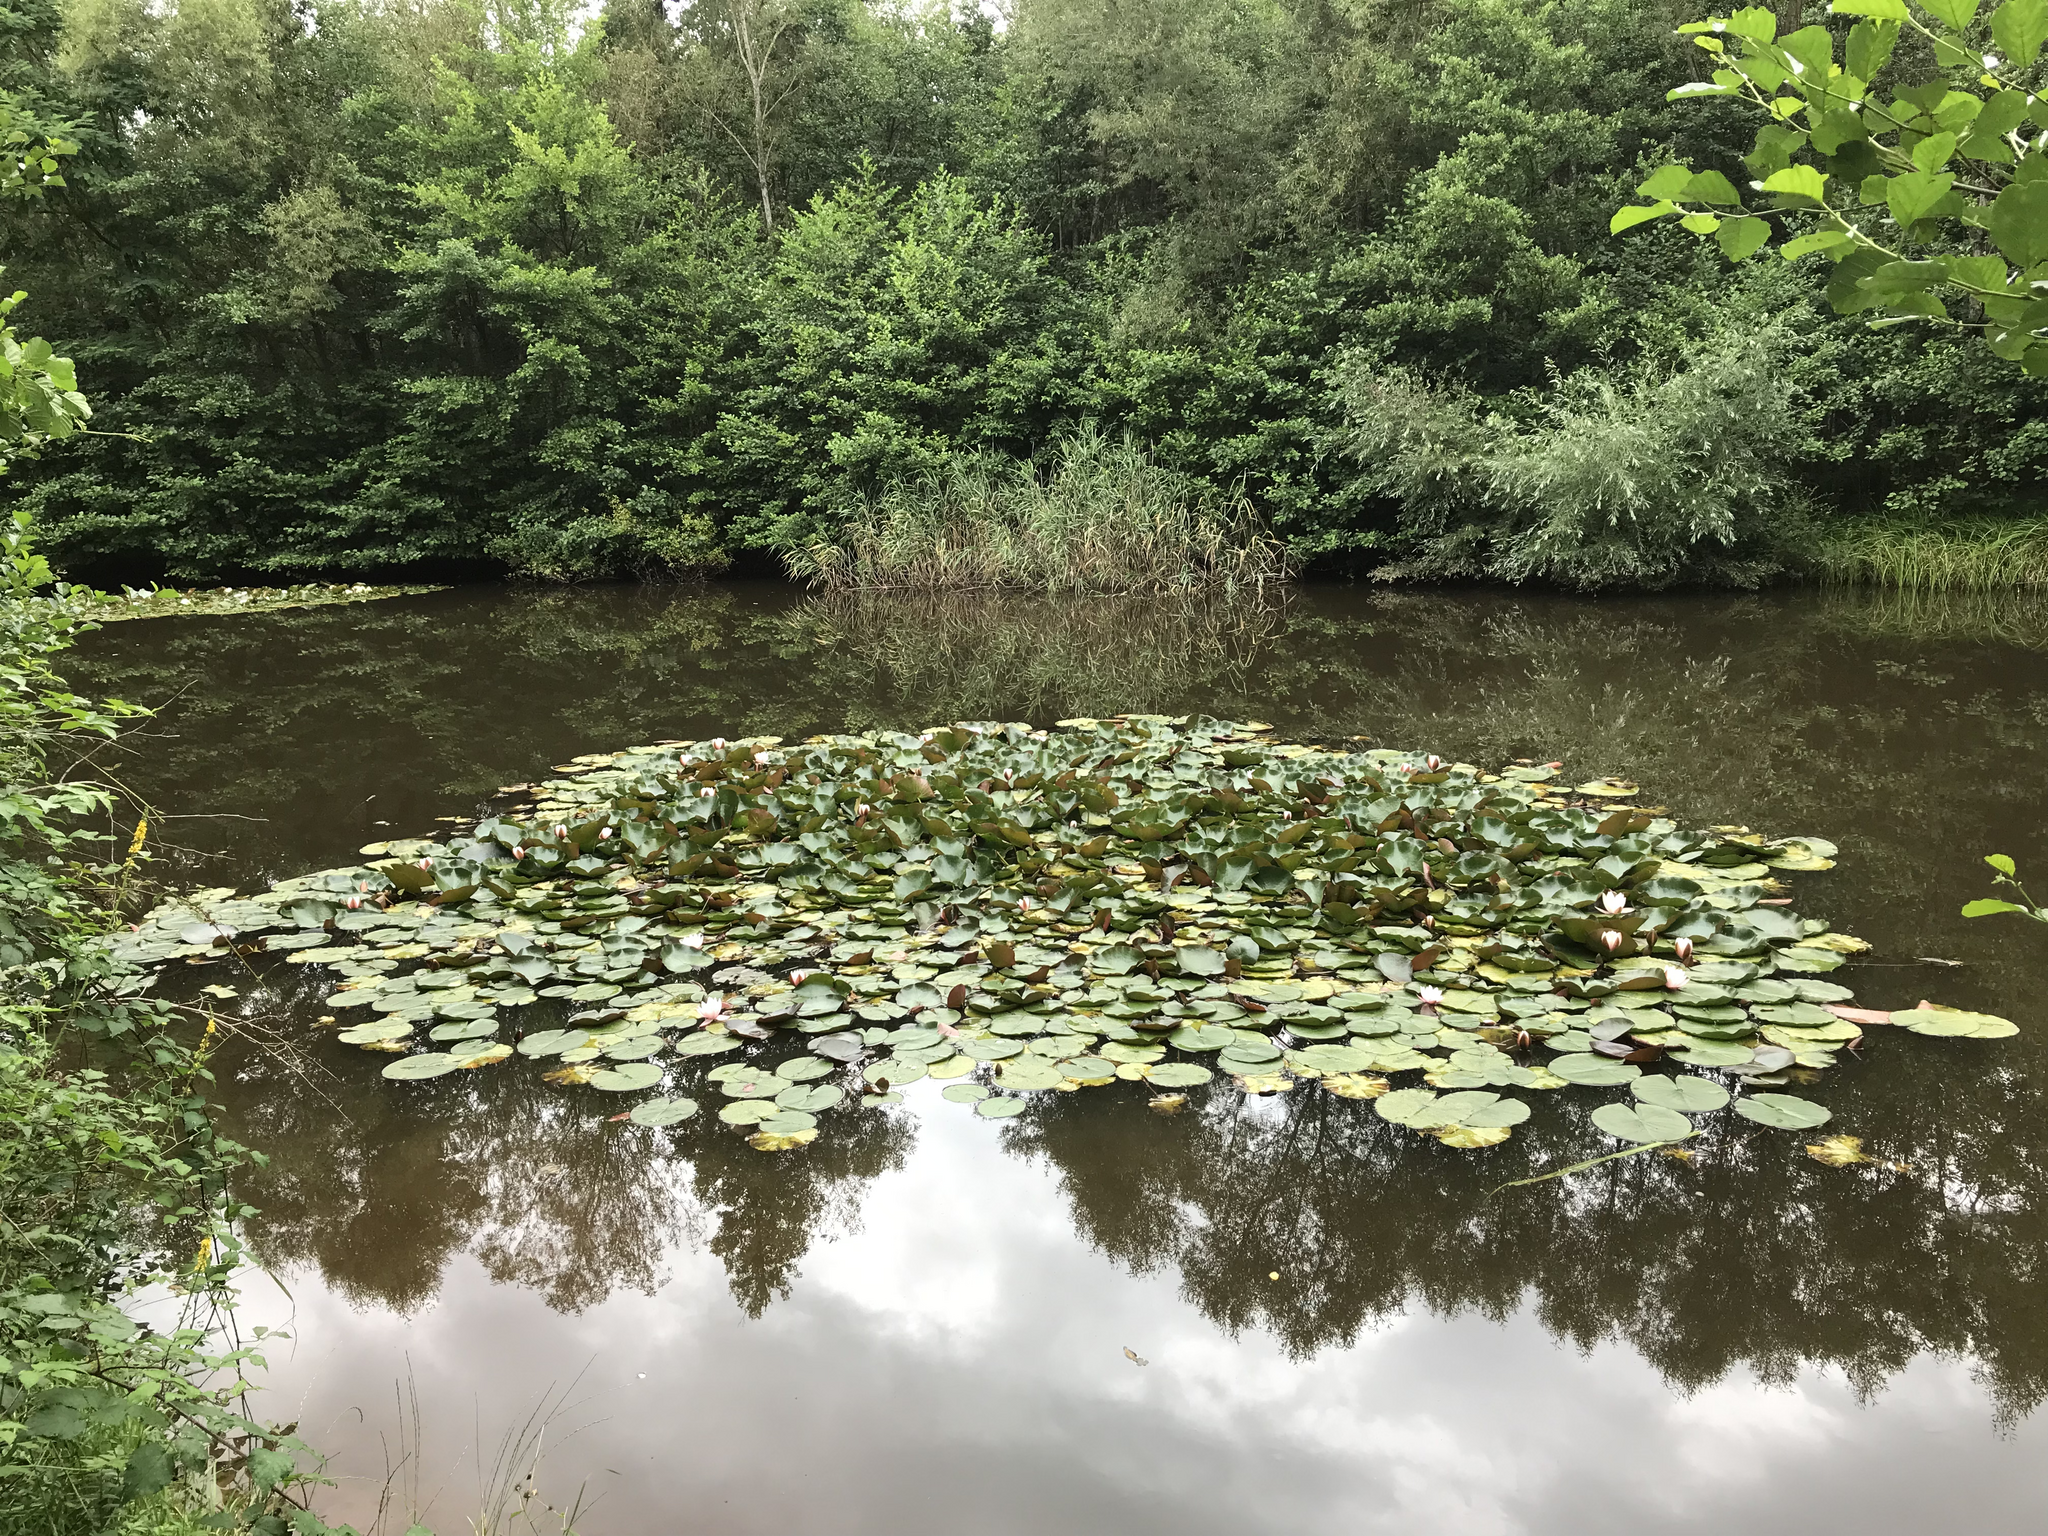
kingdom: Plantae
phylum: Tracheophyta
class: Magnoliopsida
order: Nymphaeales
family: Nymphaeaceae
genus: Nymphaea
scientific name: Nymphaea alba
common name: White water-lily
